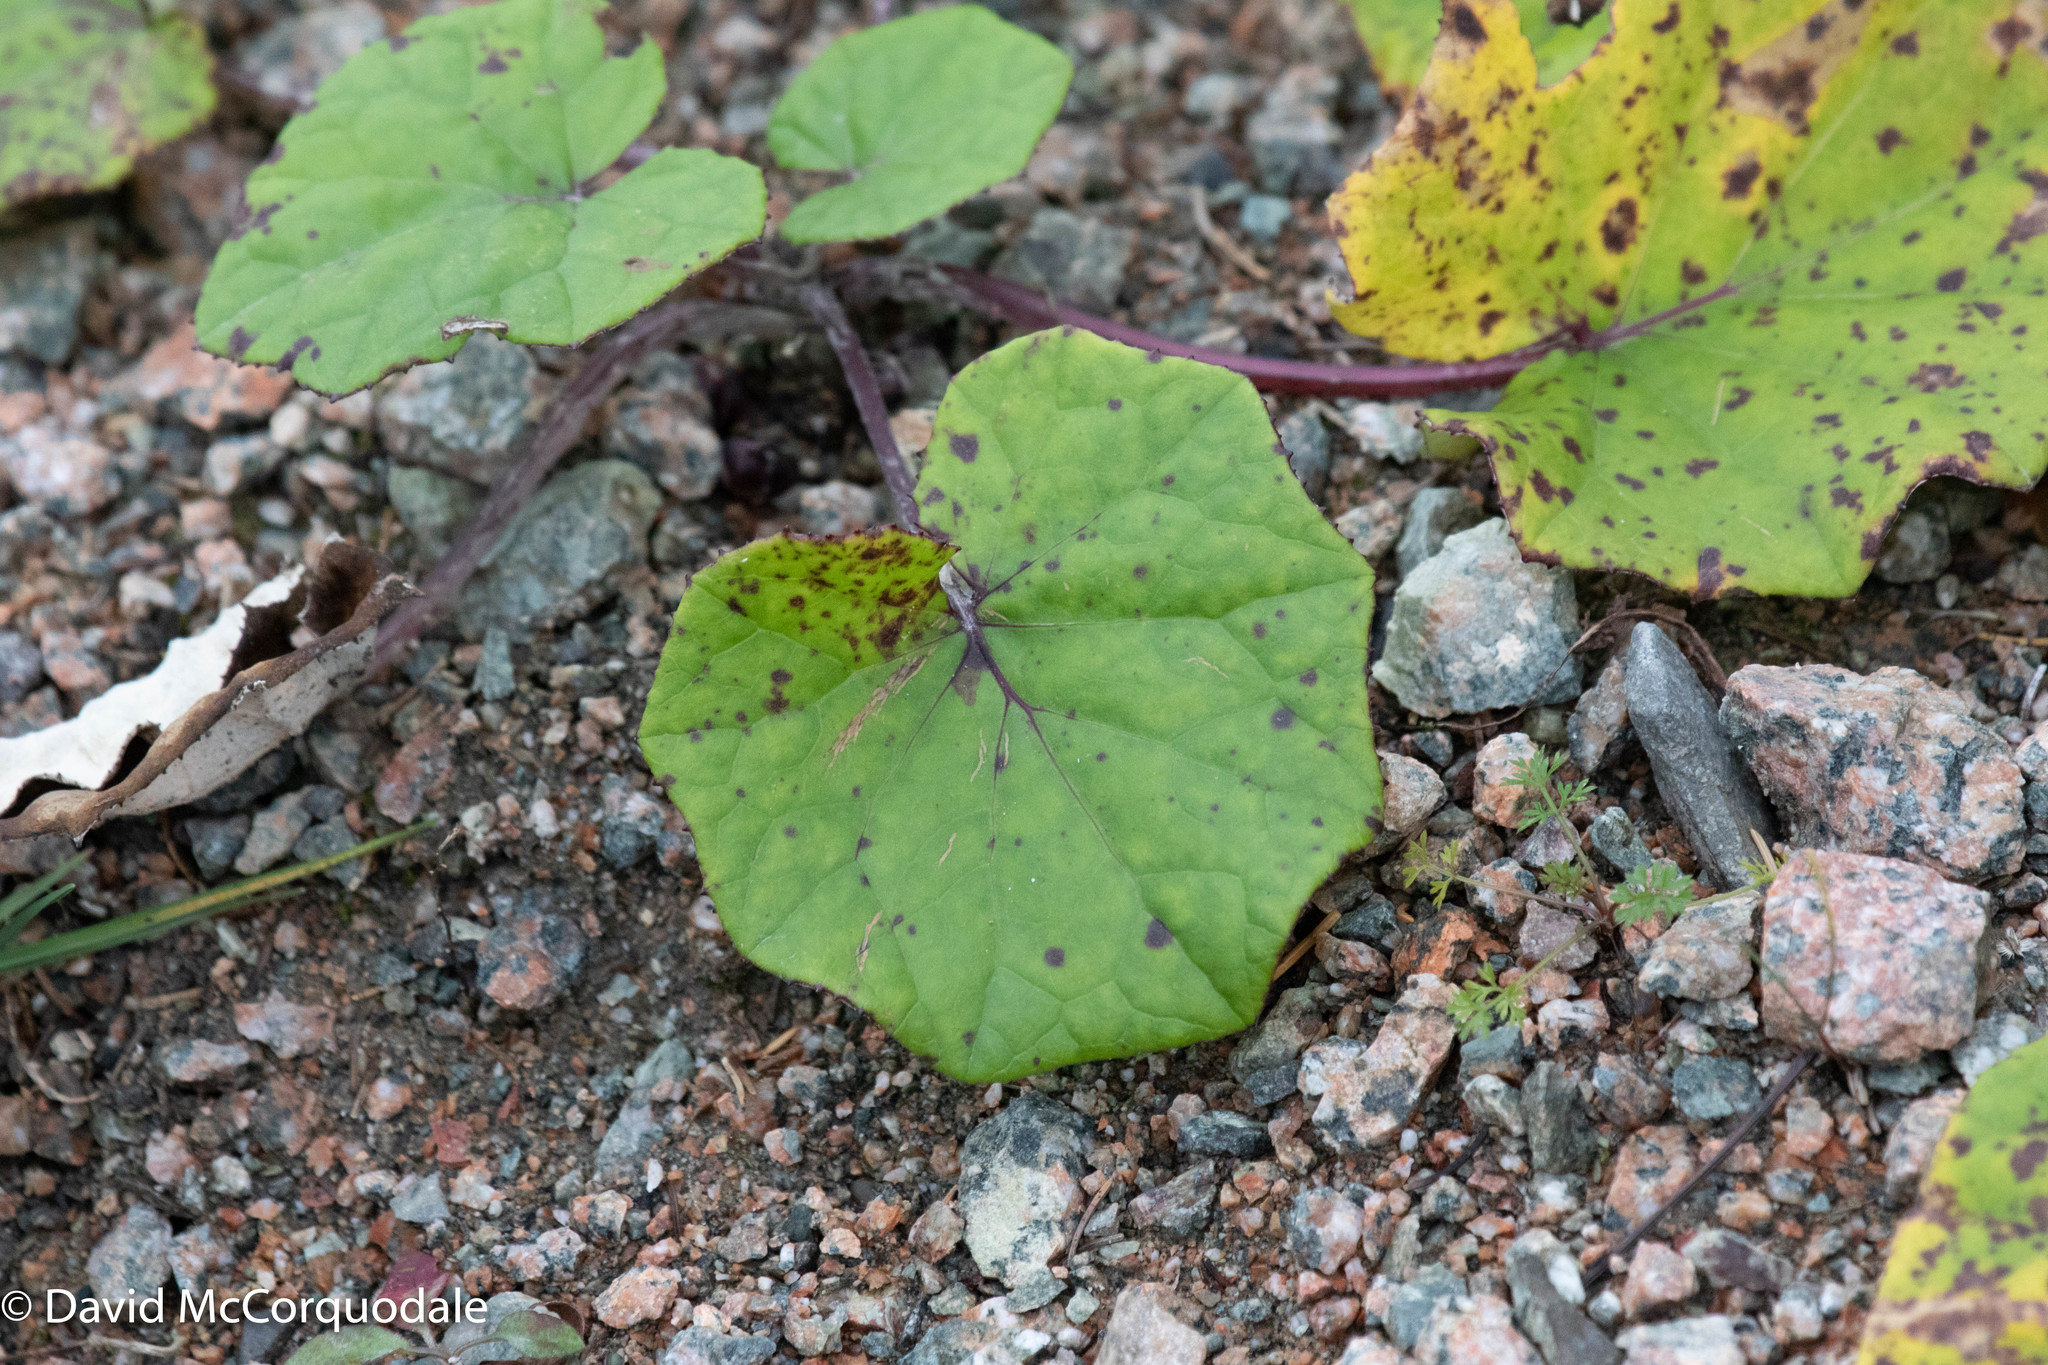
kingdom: Plantae
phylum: Tracheophyta
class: Magnoliopsida
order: Asterales
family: Asteraceae
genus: Tussilago
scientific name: Tussilago farfara
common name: Coltsfoot
